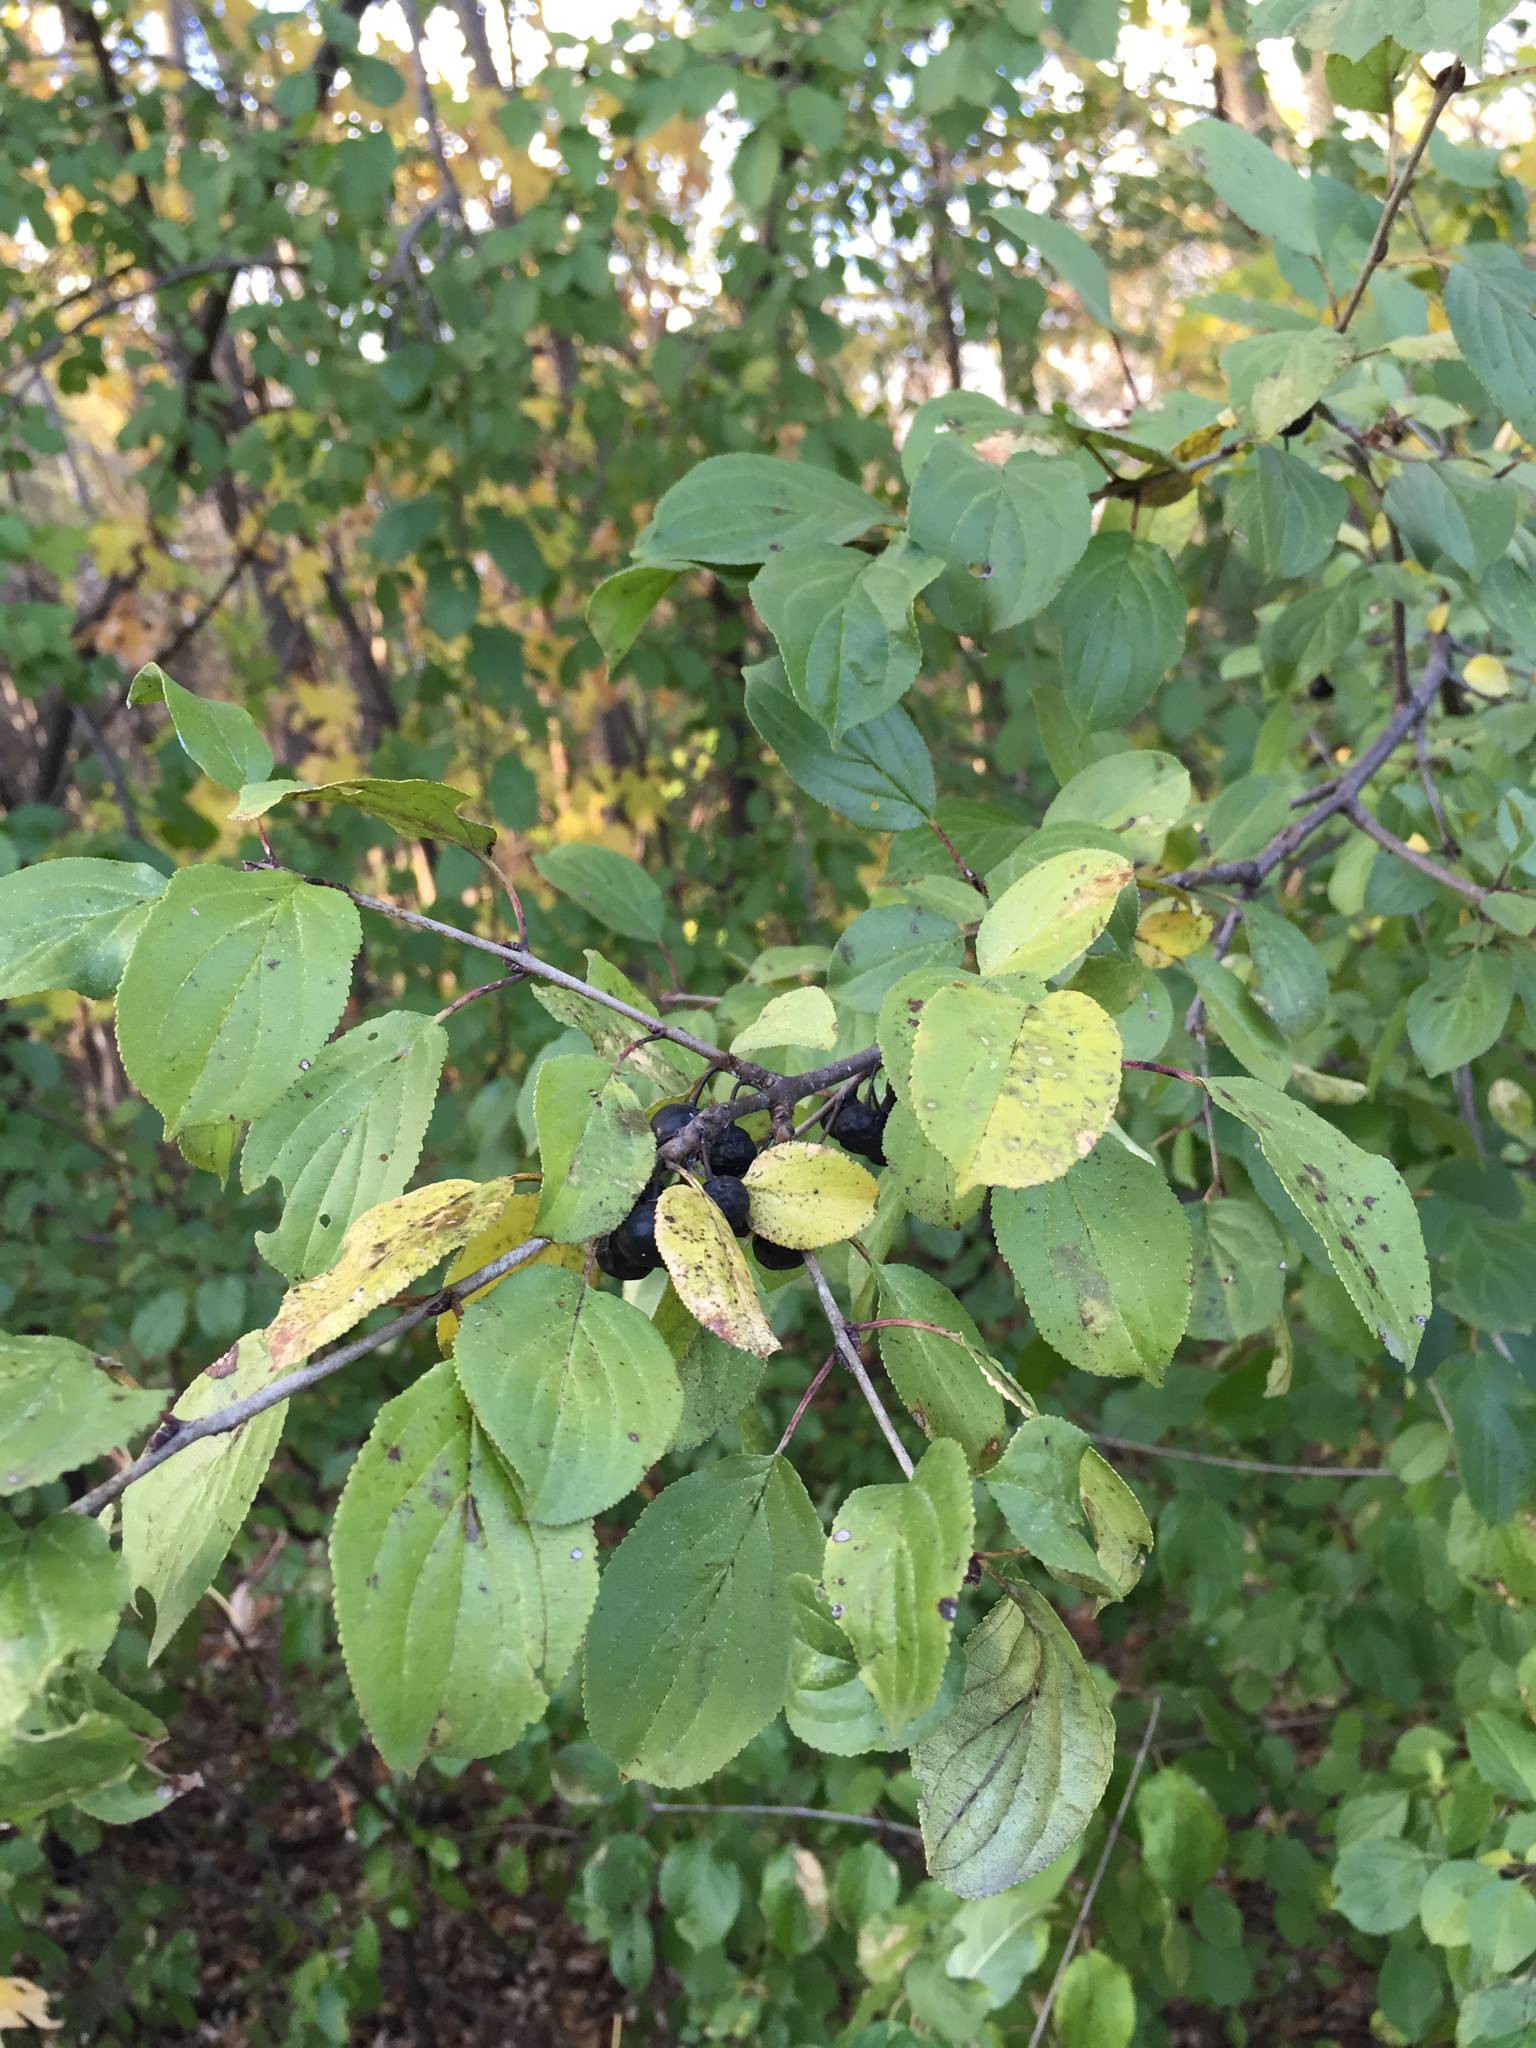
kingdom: Plantae
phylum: Tracheophyta
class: Magnoliopsida
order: Rosales
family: Rhamnaceae
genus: Rhamnus
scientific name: Rhamnus cathartica
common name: Common buckthorn
